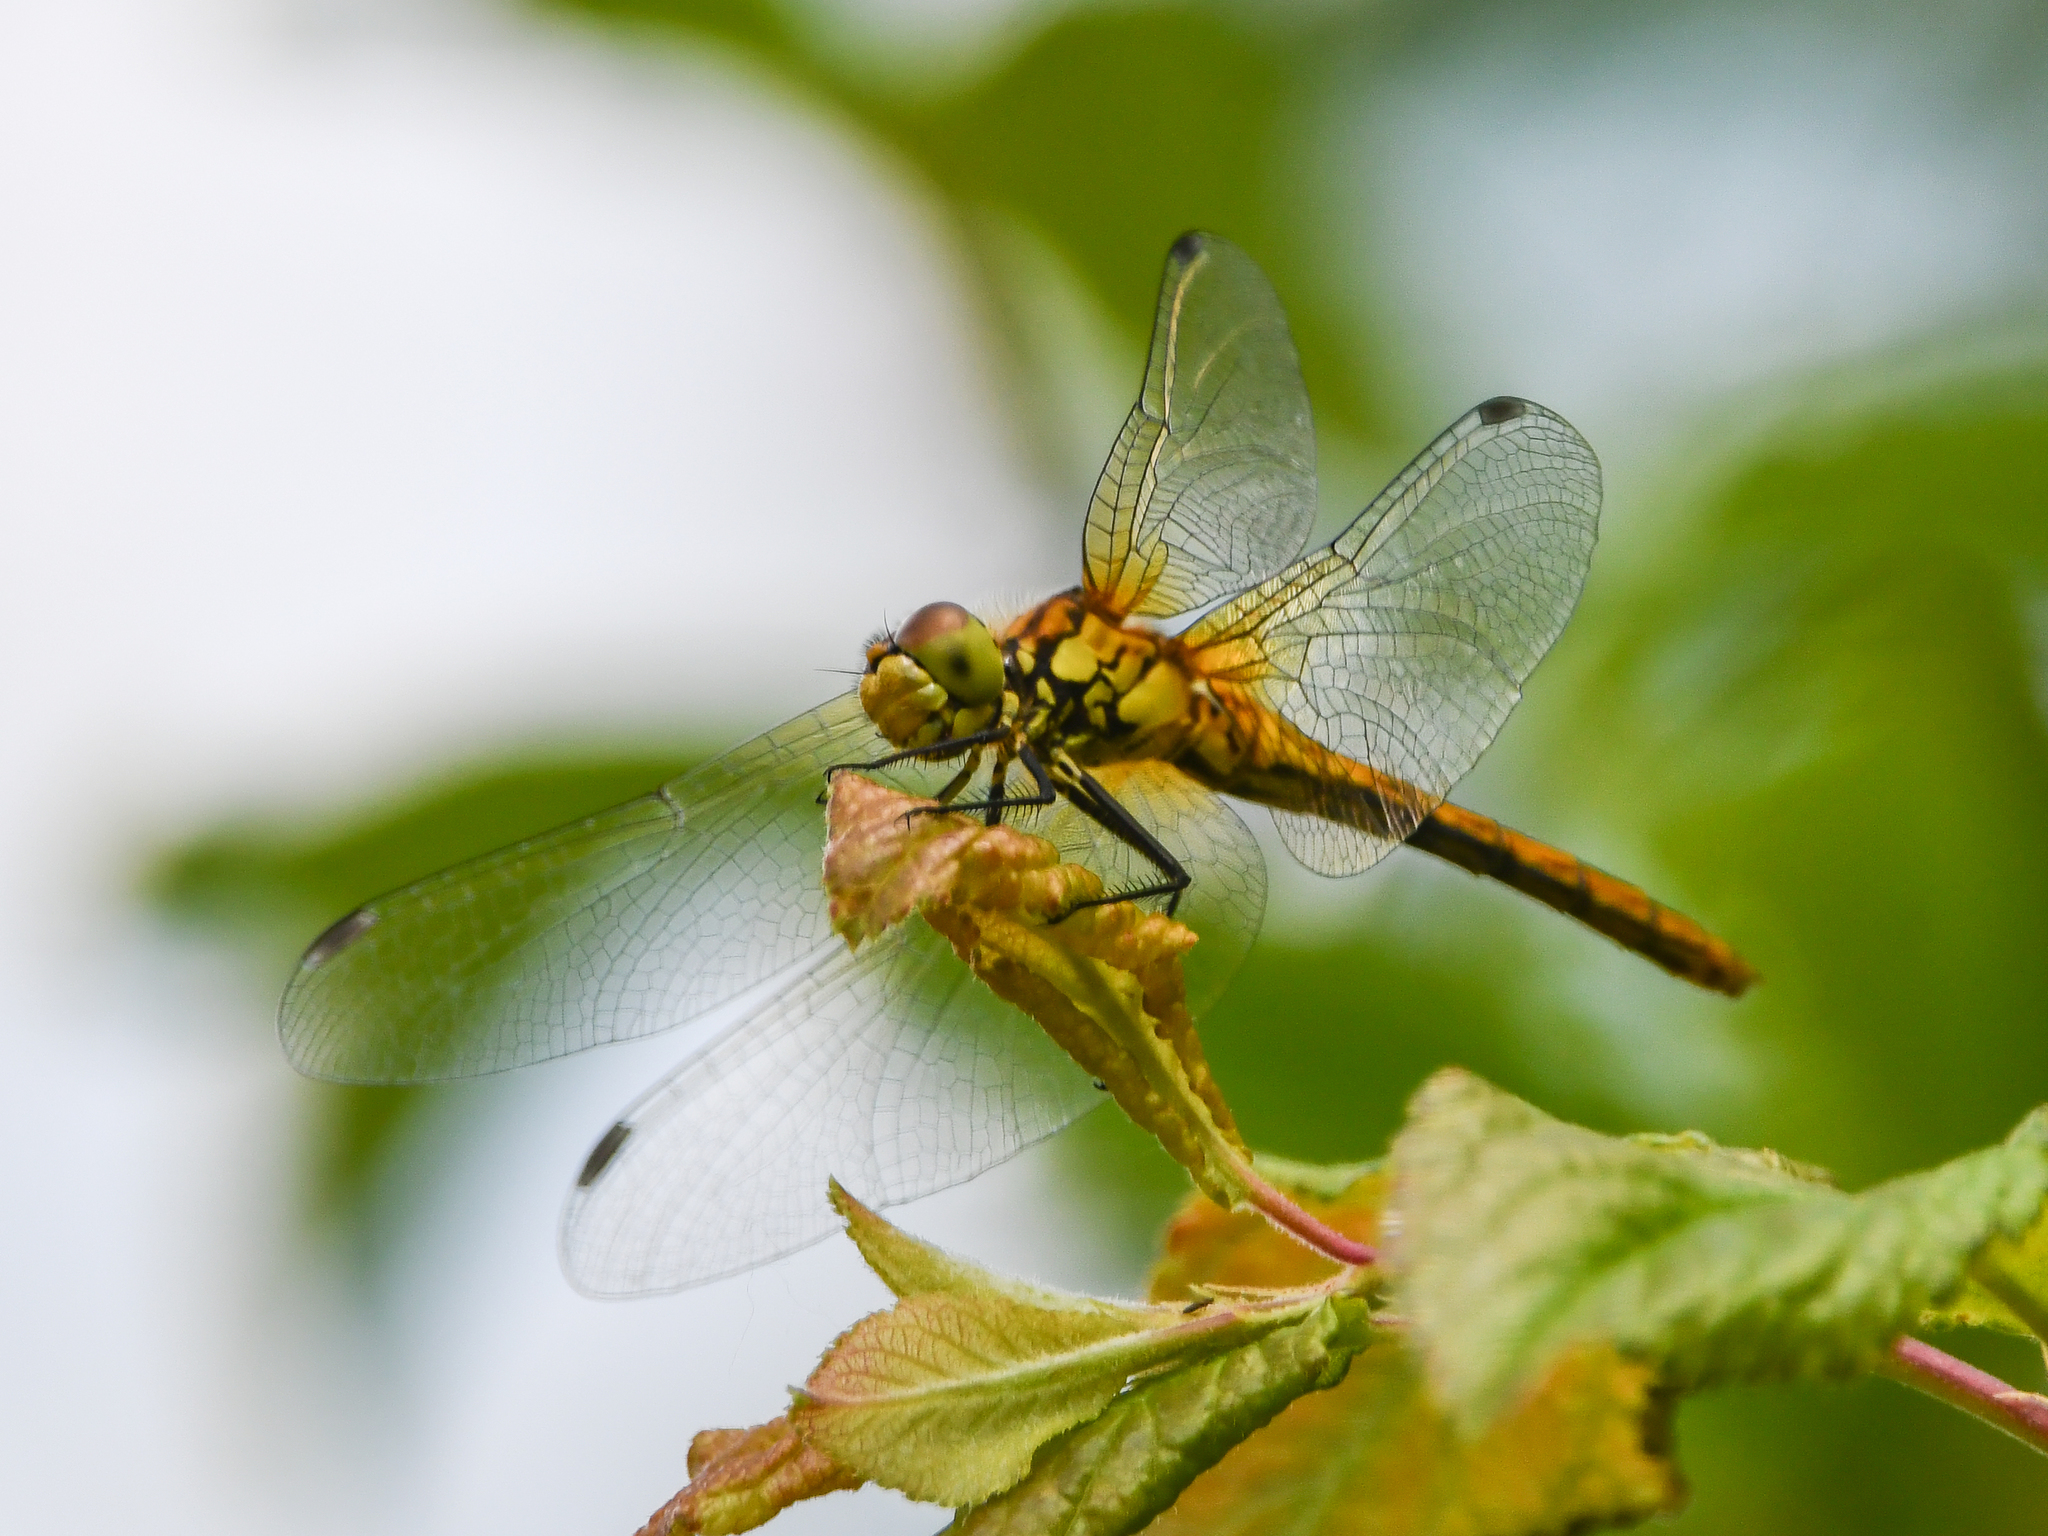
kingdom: Animalia
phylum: Arthropoda
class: Insecta
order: Odonata
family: Libellulidae
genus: Sympetrum
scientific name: Sympetrum sanguineum
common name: Ruddy darter
